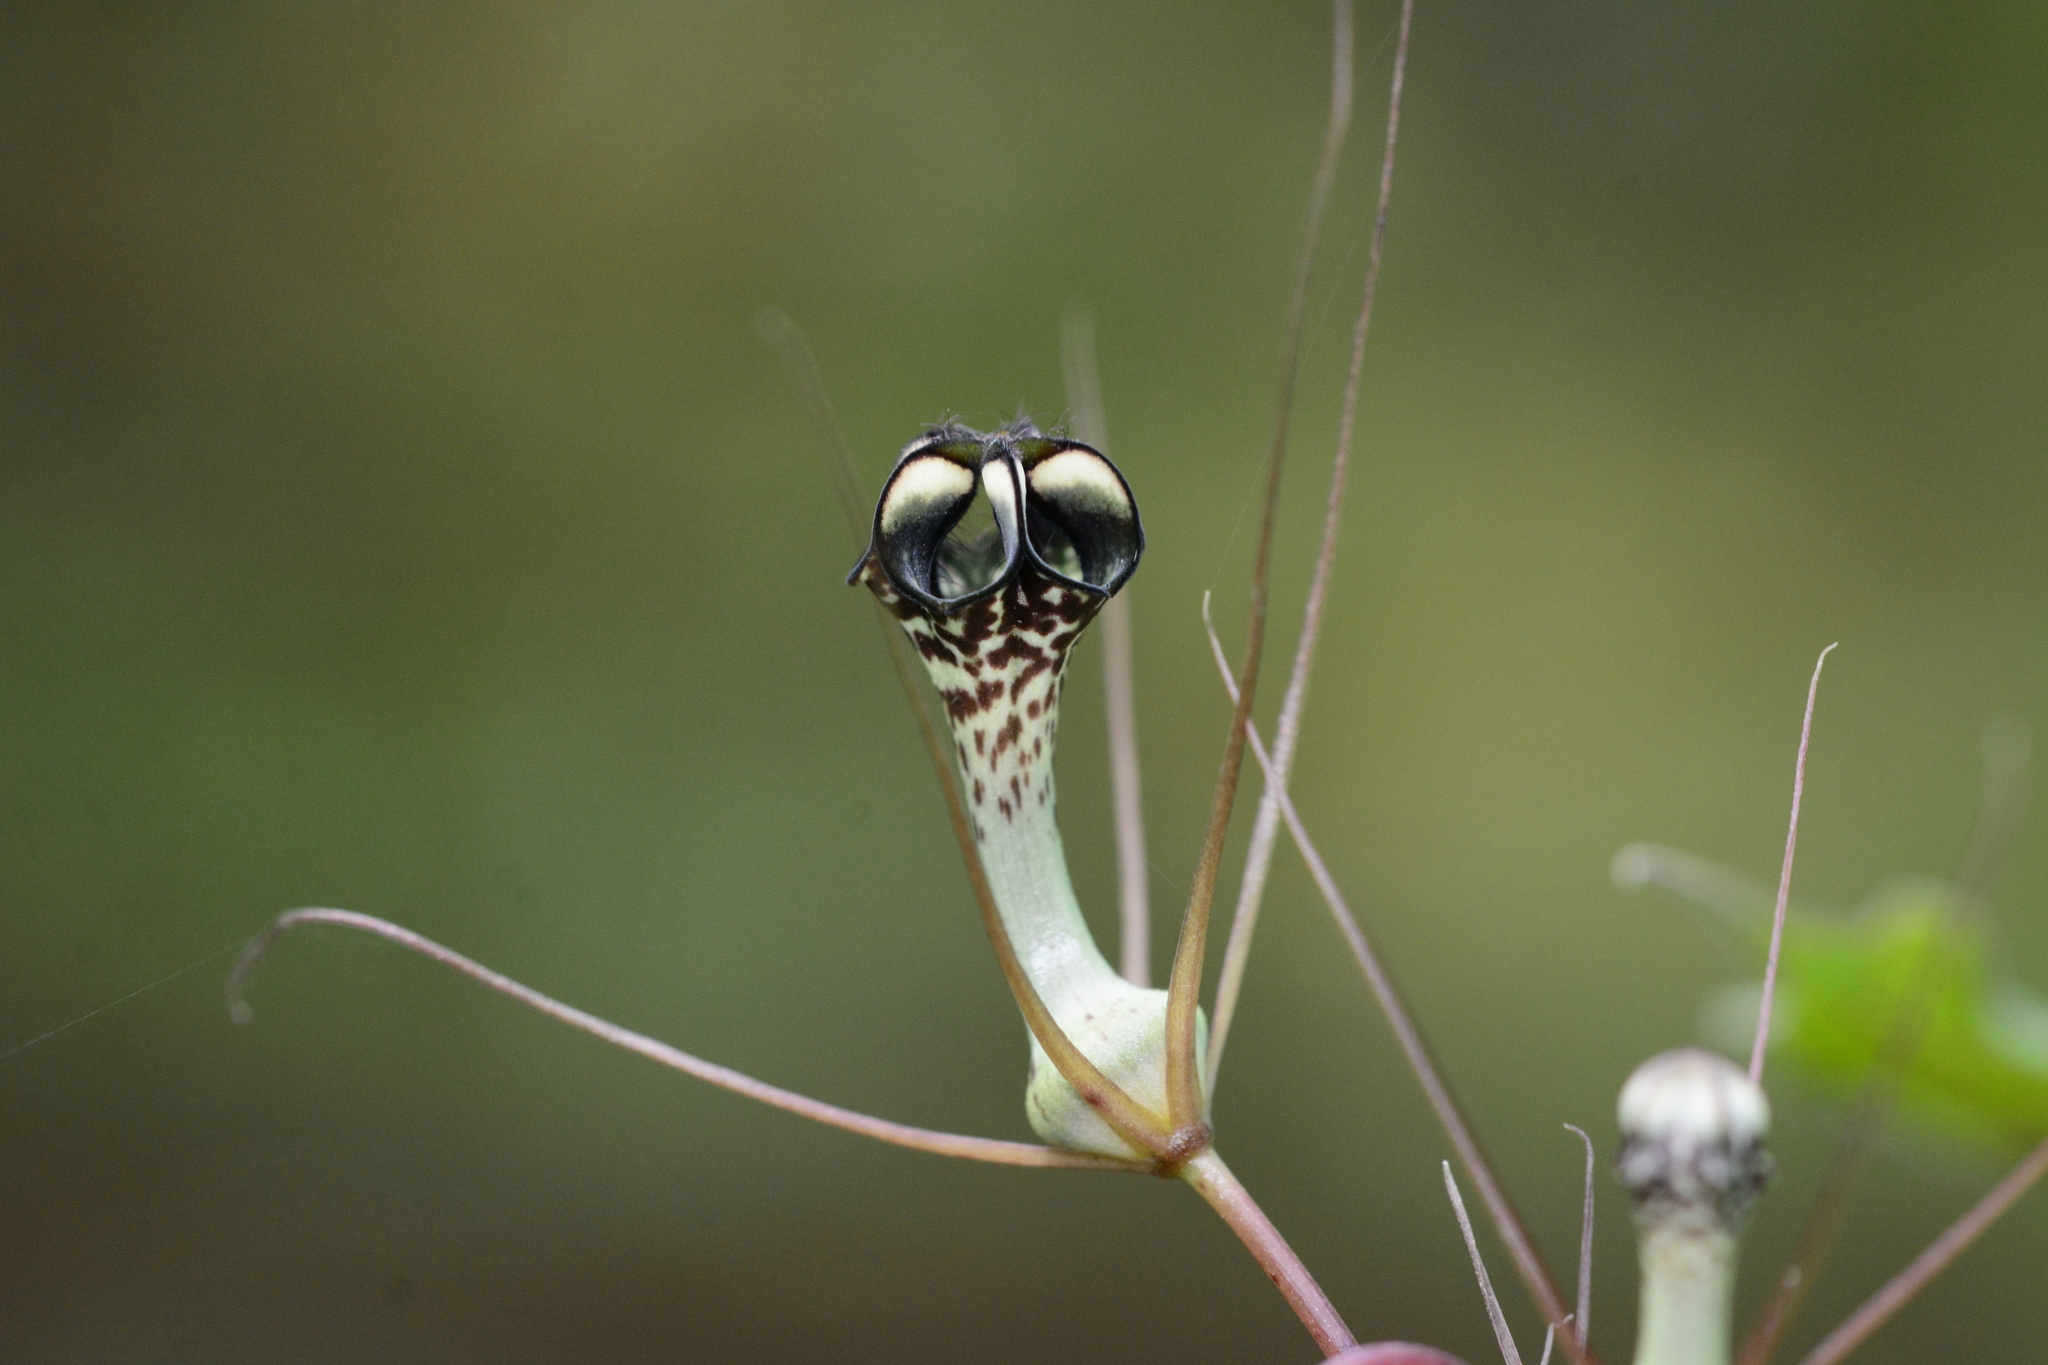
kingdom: Plantae
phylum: Tracheophyta
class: Magnoliopsida
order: Gentianales
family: Apocynaceae
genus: Ceropegia
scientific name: Ceropegia fantastica
